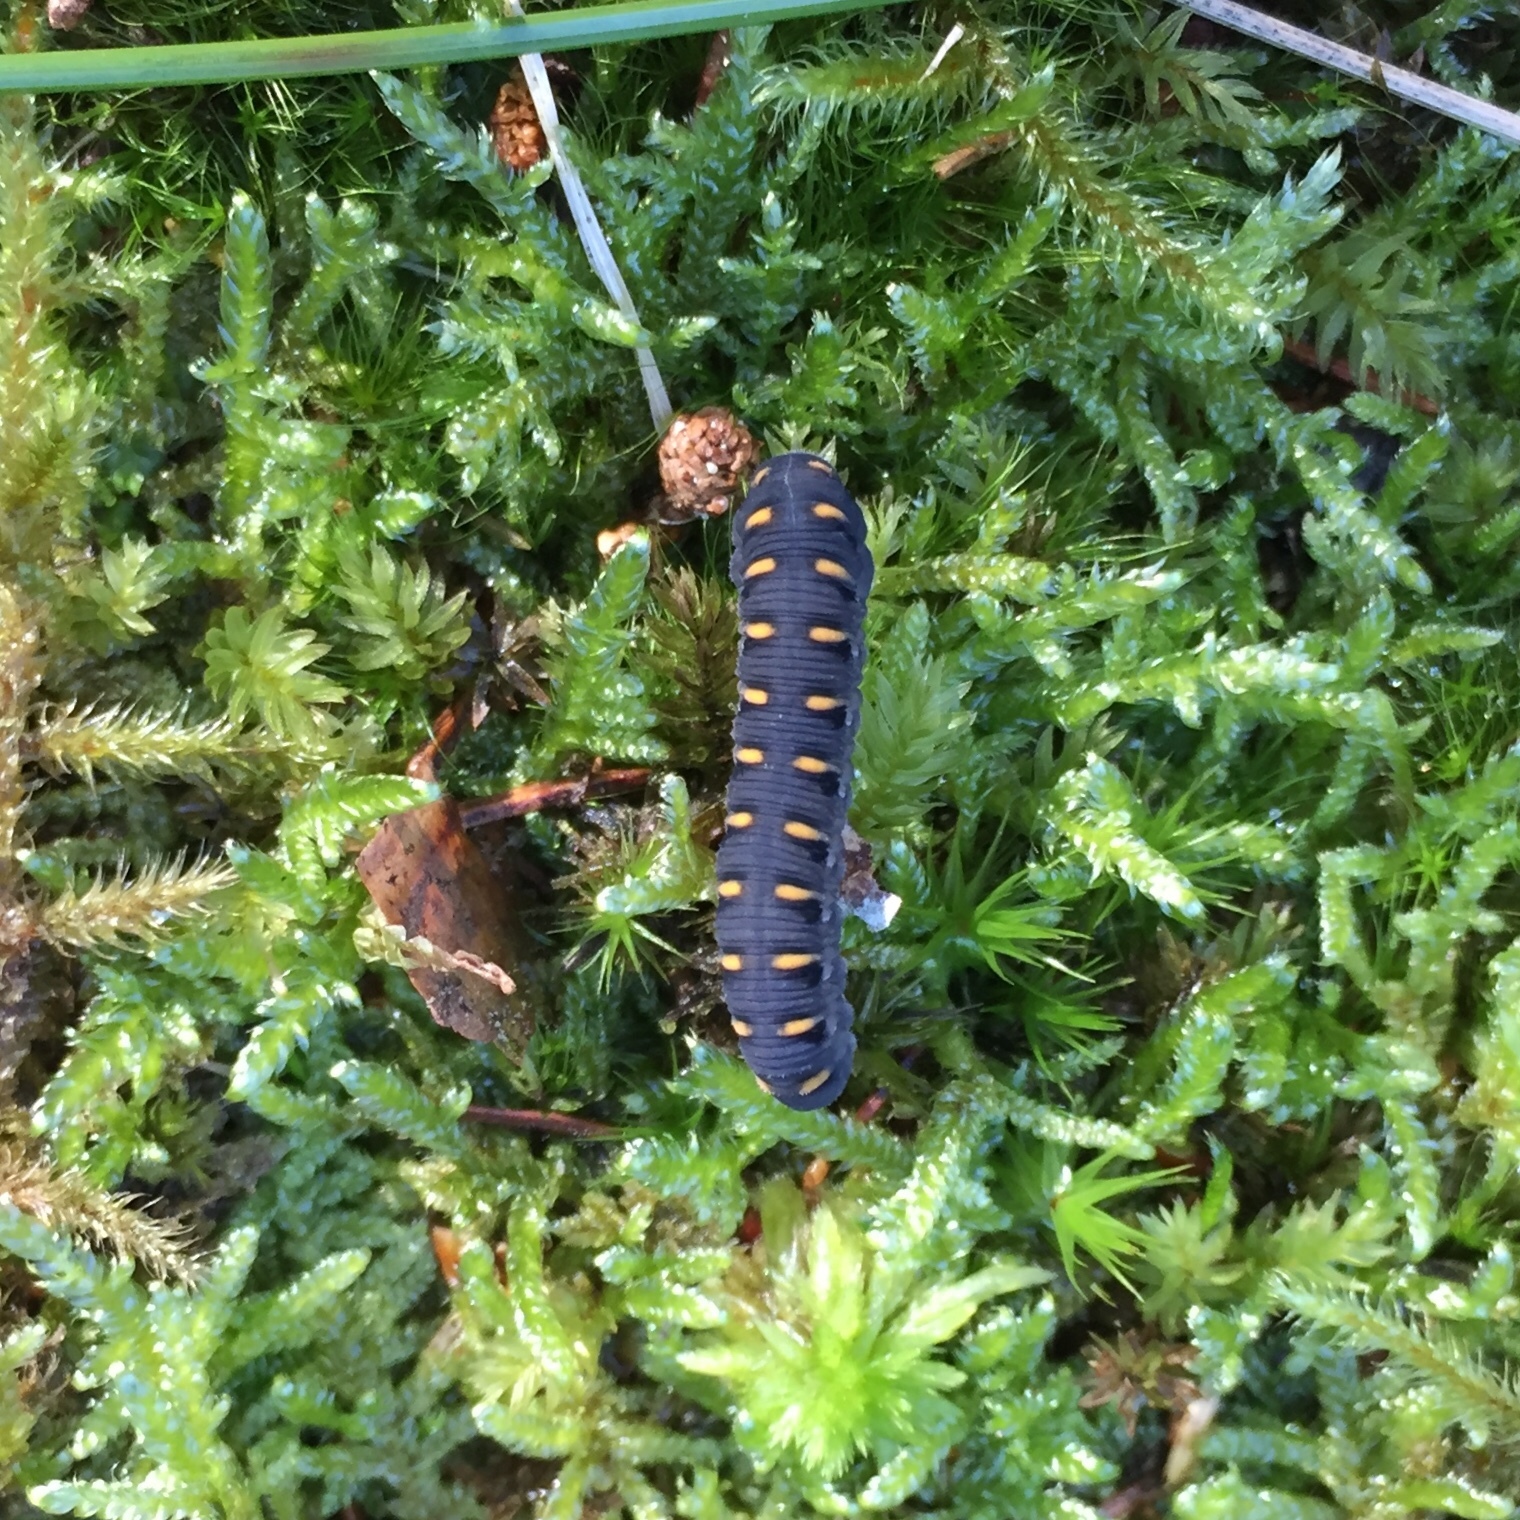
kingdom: Animalia
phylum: Arthropoda
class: Insecta
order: Hymenoptera
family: Cimbicidae
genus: Abia
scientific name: Abia candens
